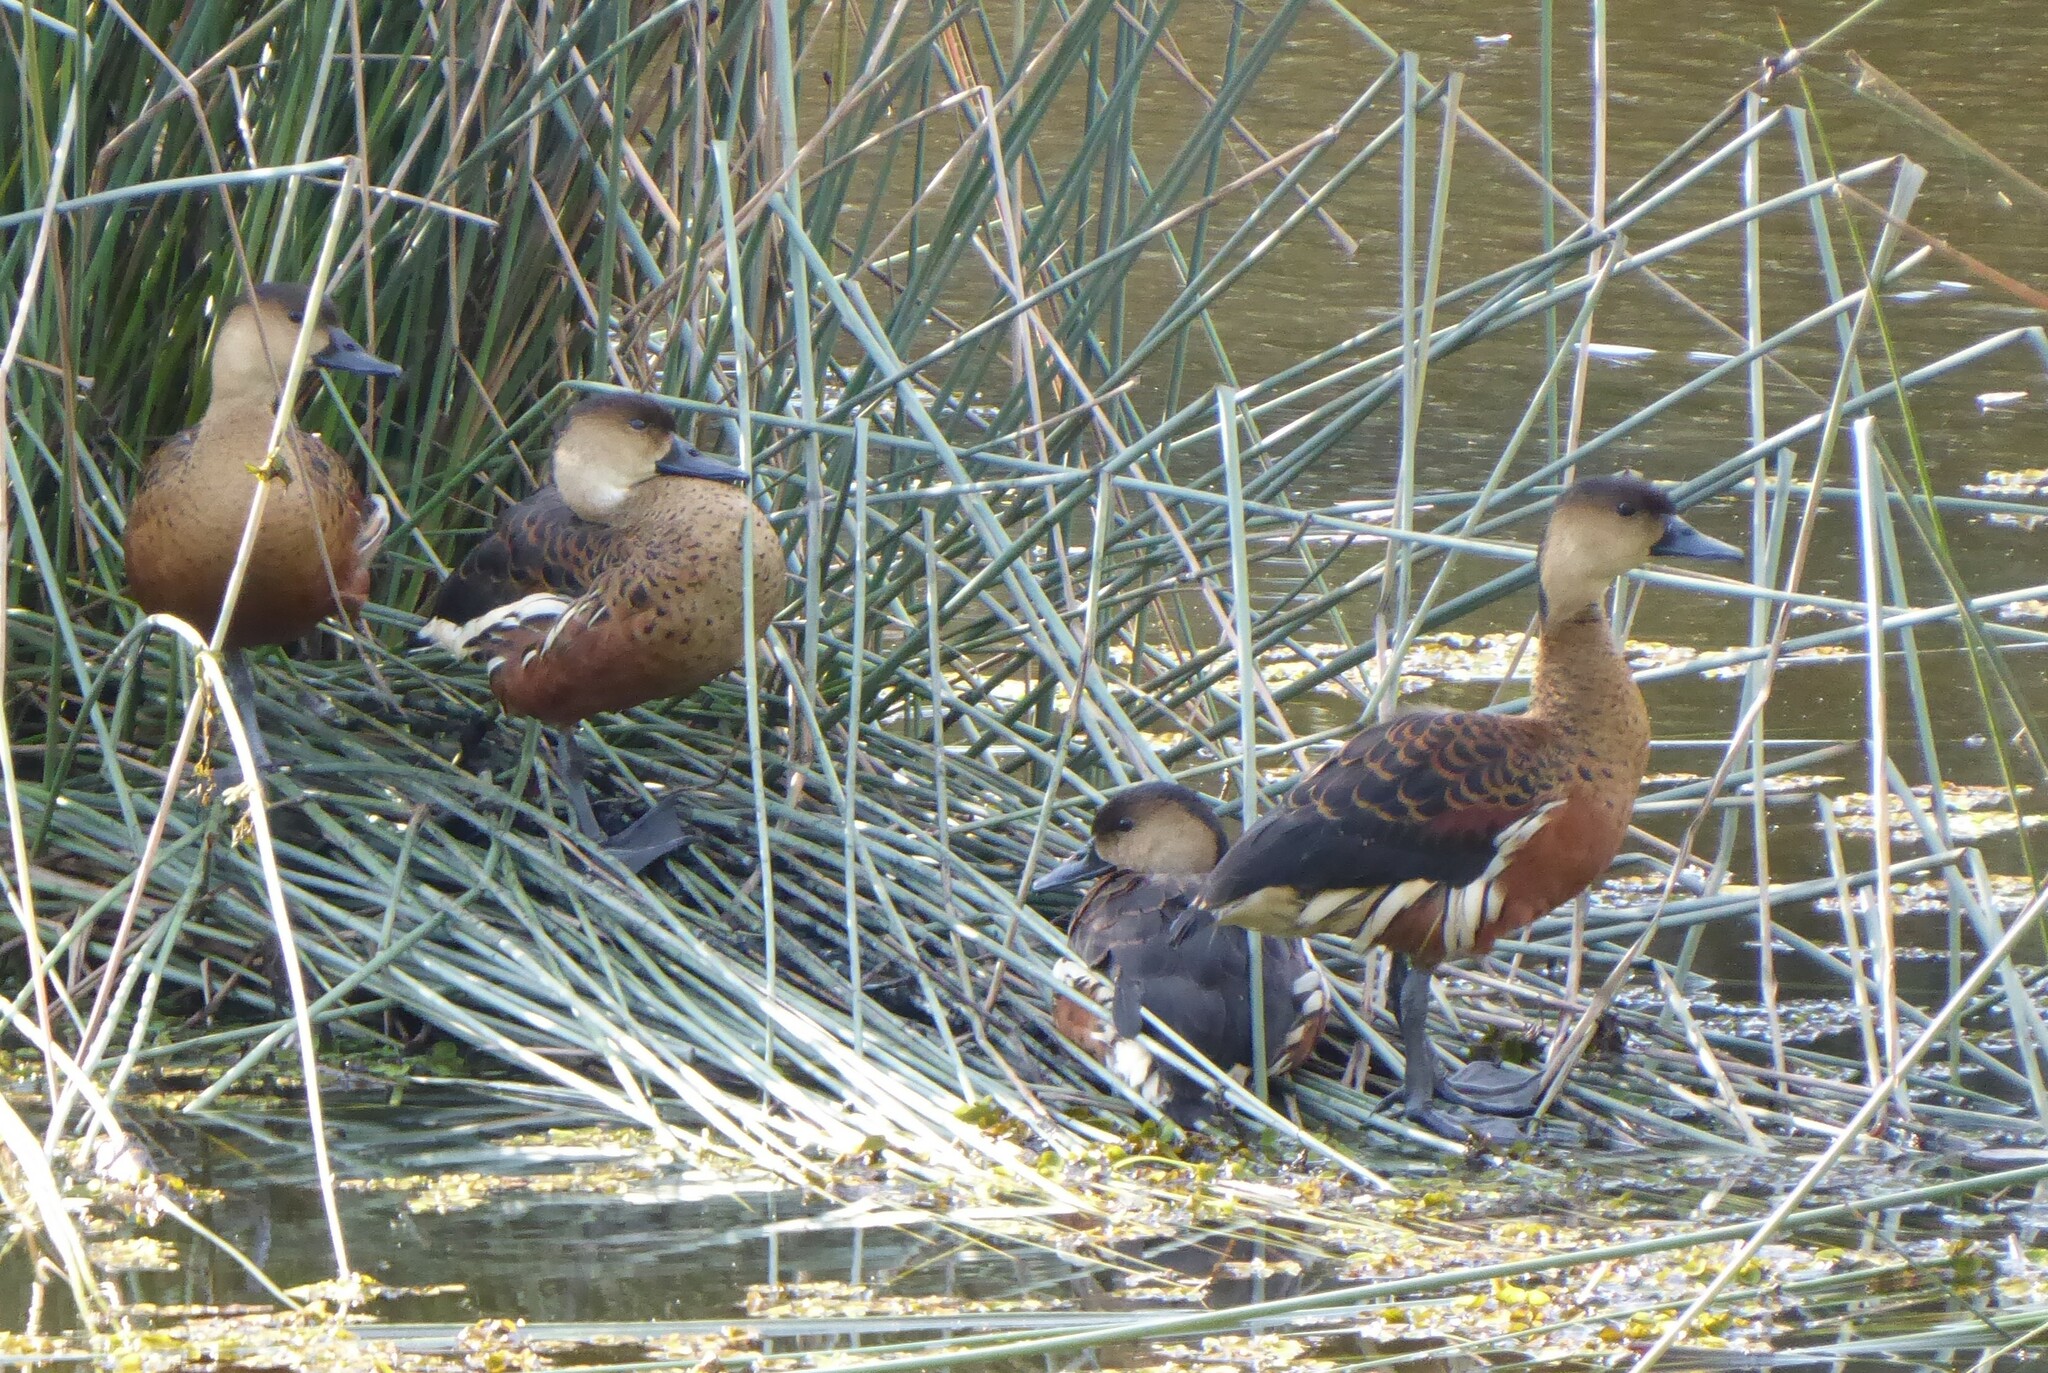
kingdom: Animalia
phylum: Chordata
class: Aves
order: Anseriformes
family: Anatidae
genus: Dendrocygna
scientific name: Dendrocygna arcuata
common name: Wandering whistling-duck
